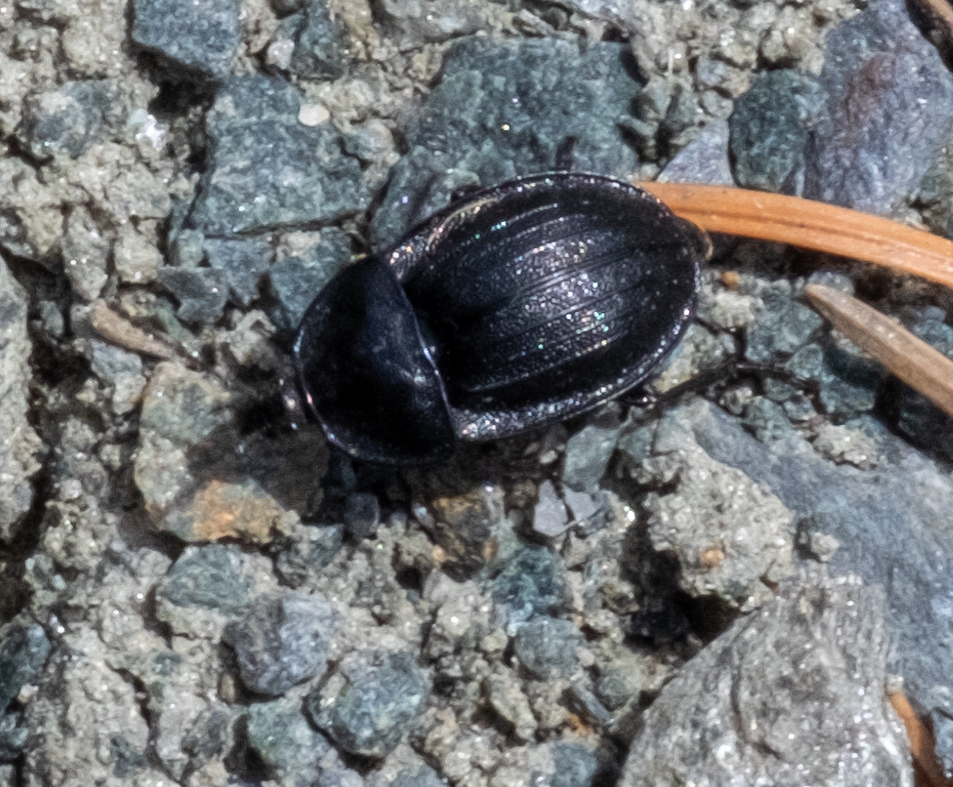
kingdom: Animalia
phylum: Arthropoda
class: Insecta
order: Coleoptera
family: Staphylinidae
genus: Silpha
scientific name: Silpha atrata
